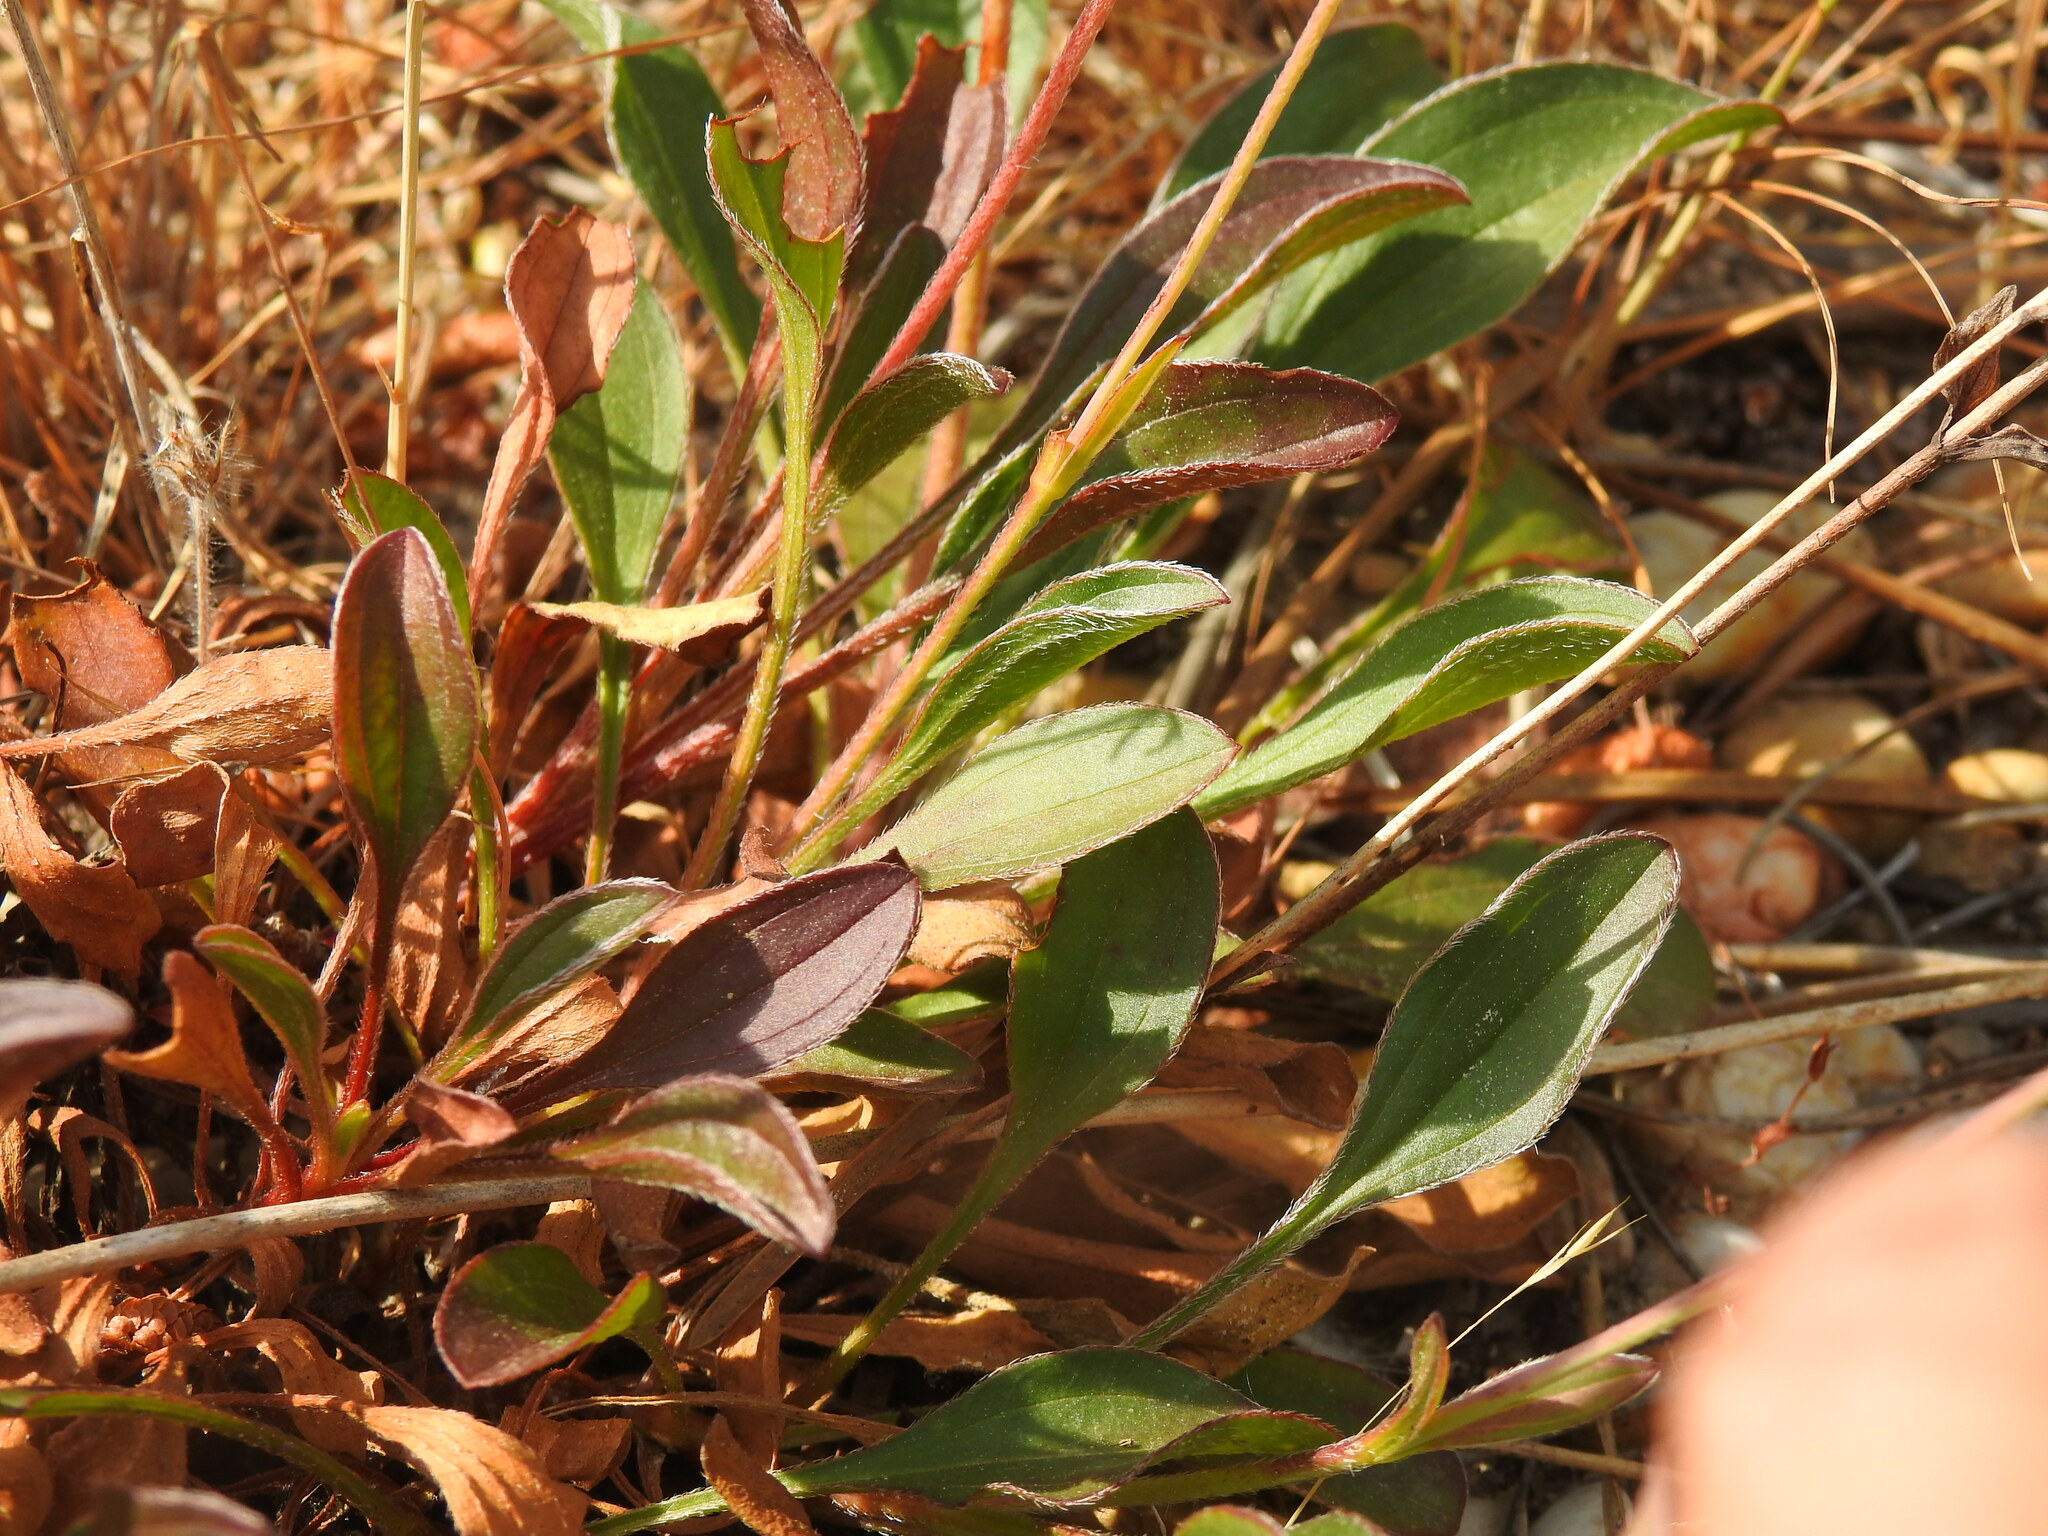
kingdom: Plantae
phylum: Tracheophyta
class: Magnoliopsida
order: Malvales
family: Cistaceae
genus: Tuberaria
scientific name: Tuberaria globulariifolia
